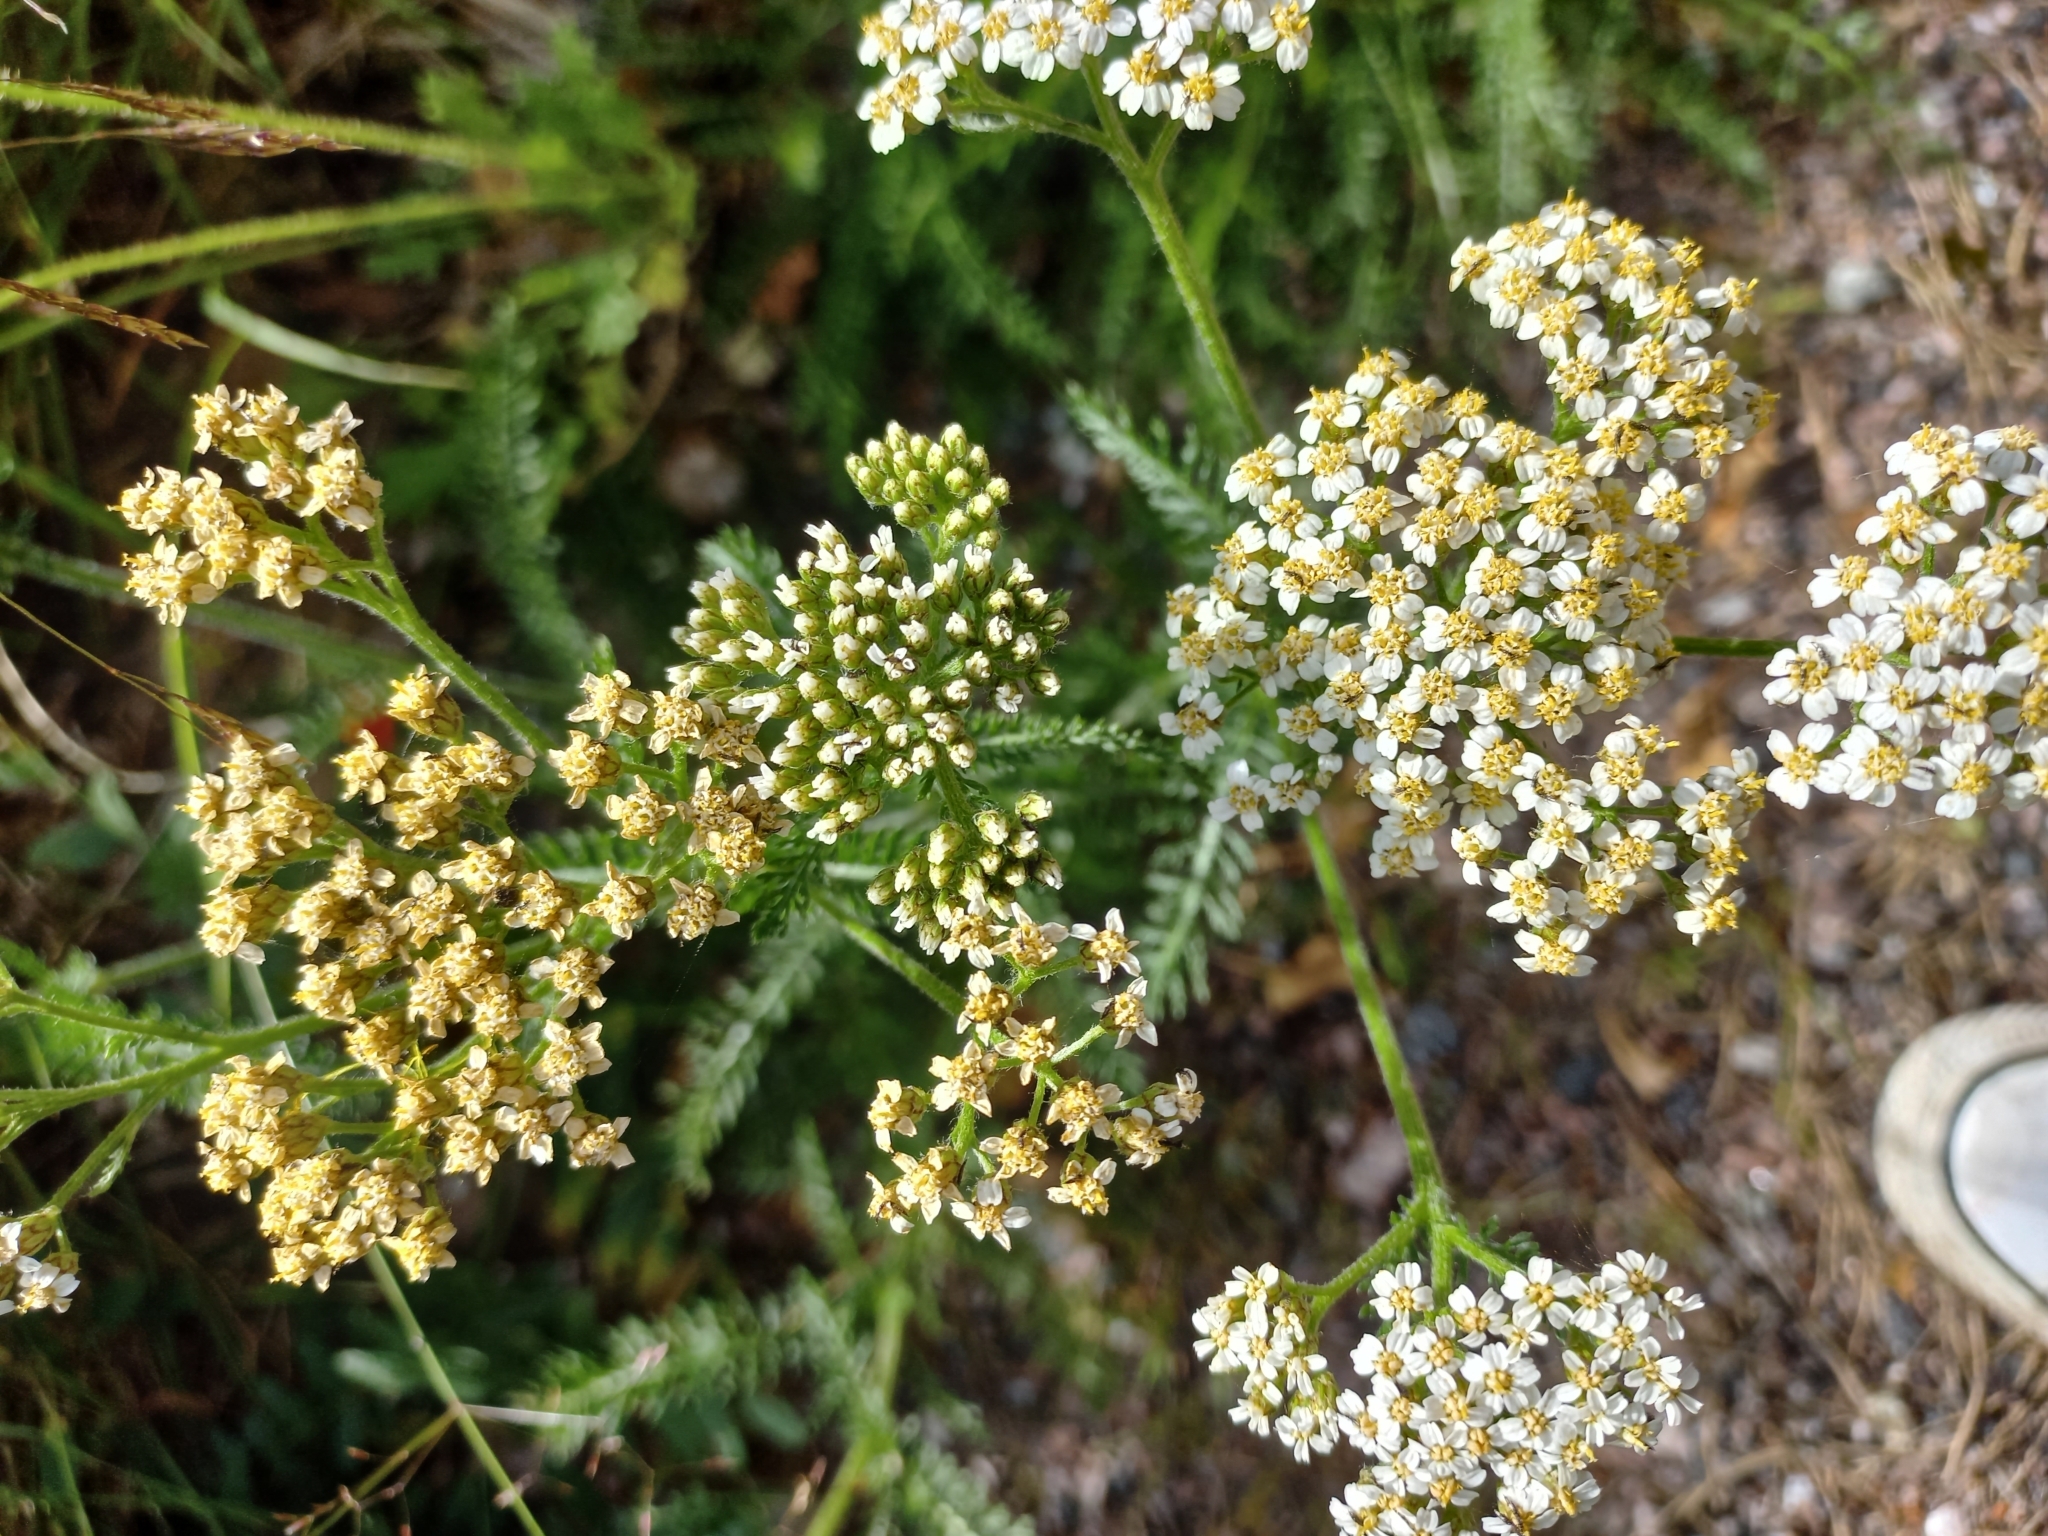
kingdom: Plantae
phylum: Tracheophyta
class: Magnoliopsida
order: Asterales
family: Asteraceae
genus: Achillea
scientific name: Achillea millefolium
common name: Yarrow
